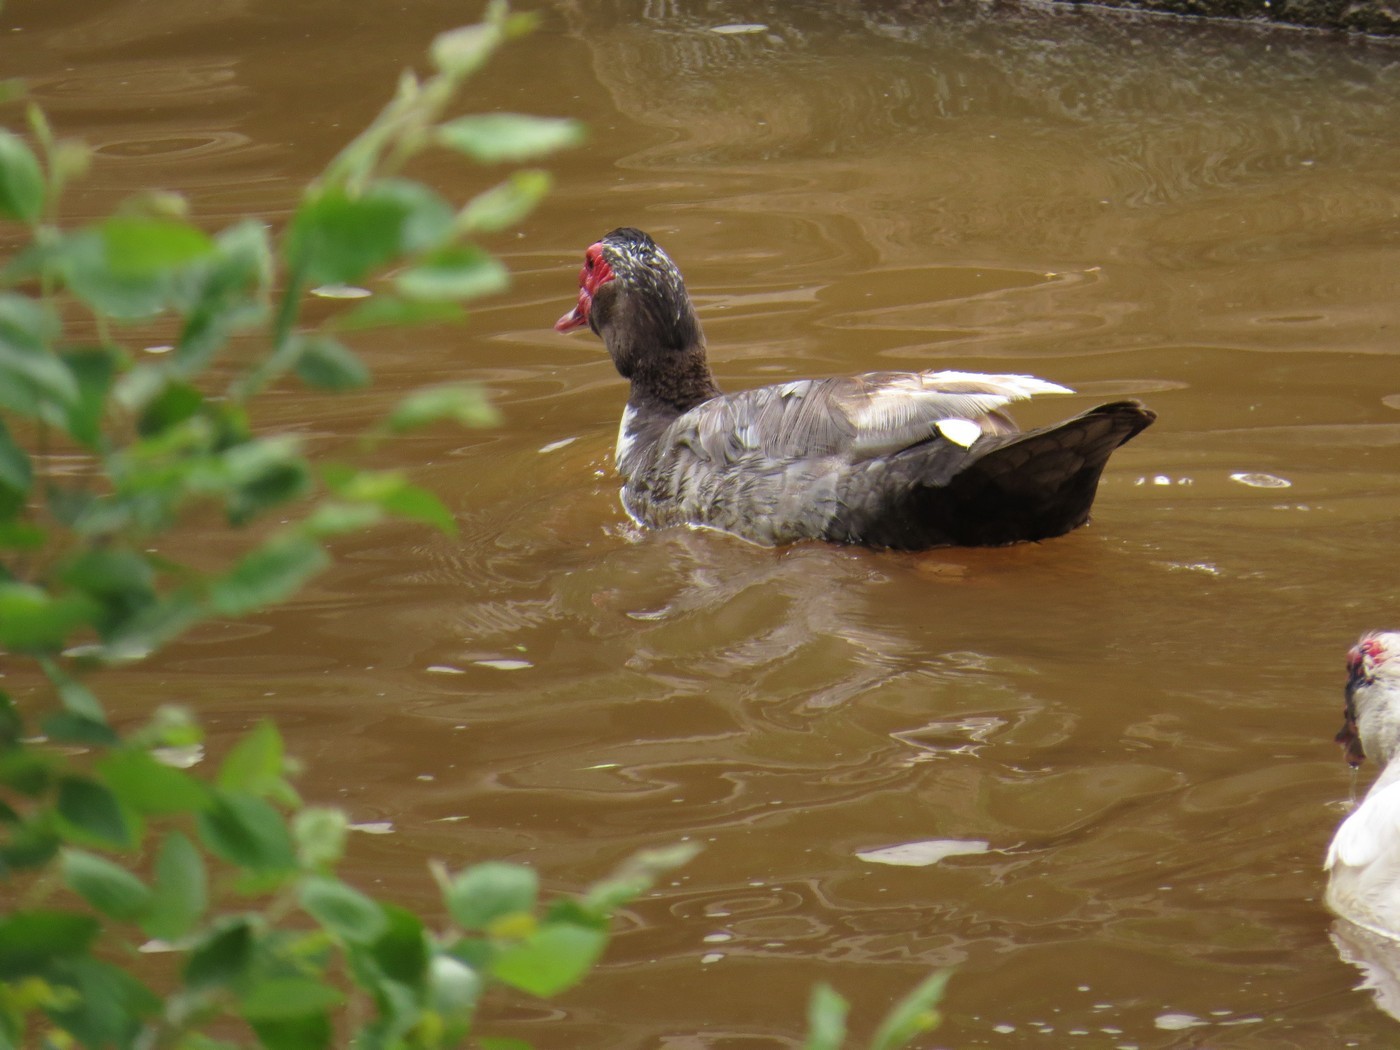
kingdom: Animalia
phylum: Chordata
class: Aves
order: Anseriformes
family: Anatidae
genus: Cairina
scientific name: Cairina moschata
